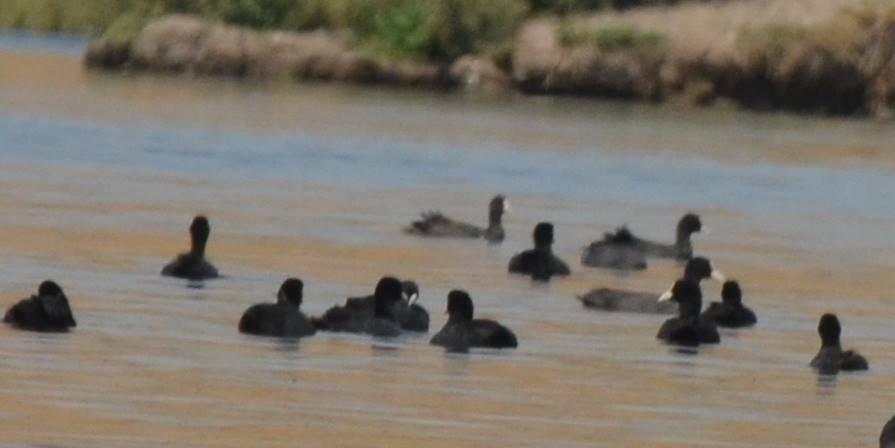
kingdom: Animalia
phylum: Chordata
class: Aves
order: Gruiformes
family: Rallidae
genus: Fulica
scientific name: Fulica atra
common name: Eurasian coot
